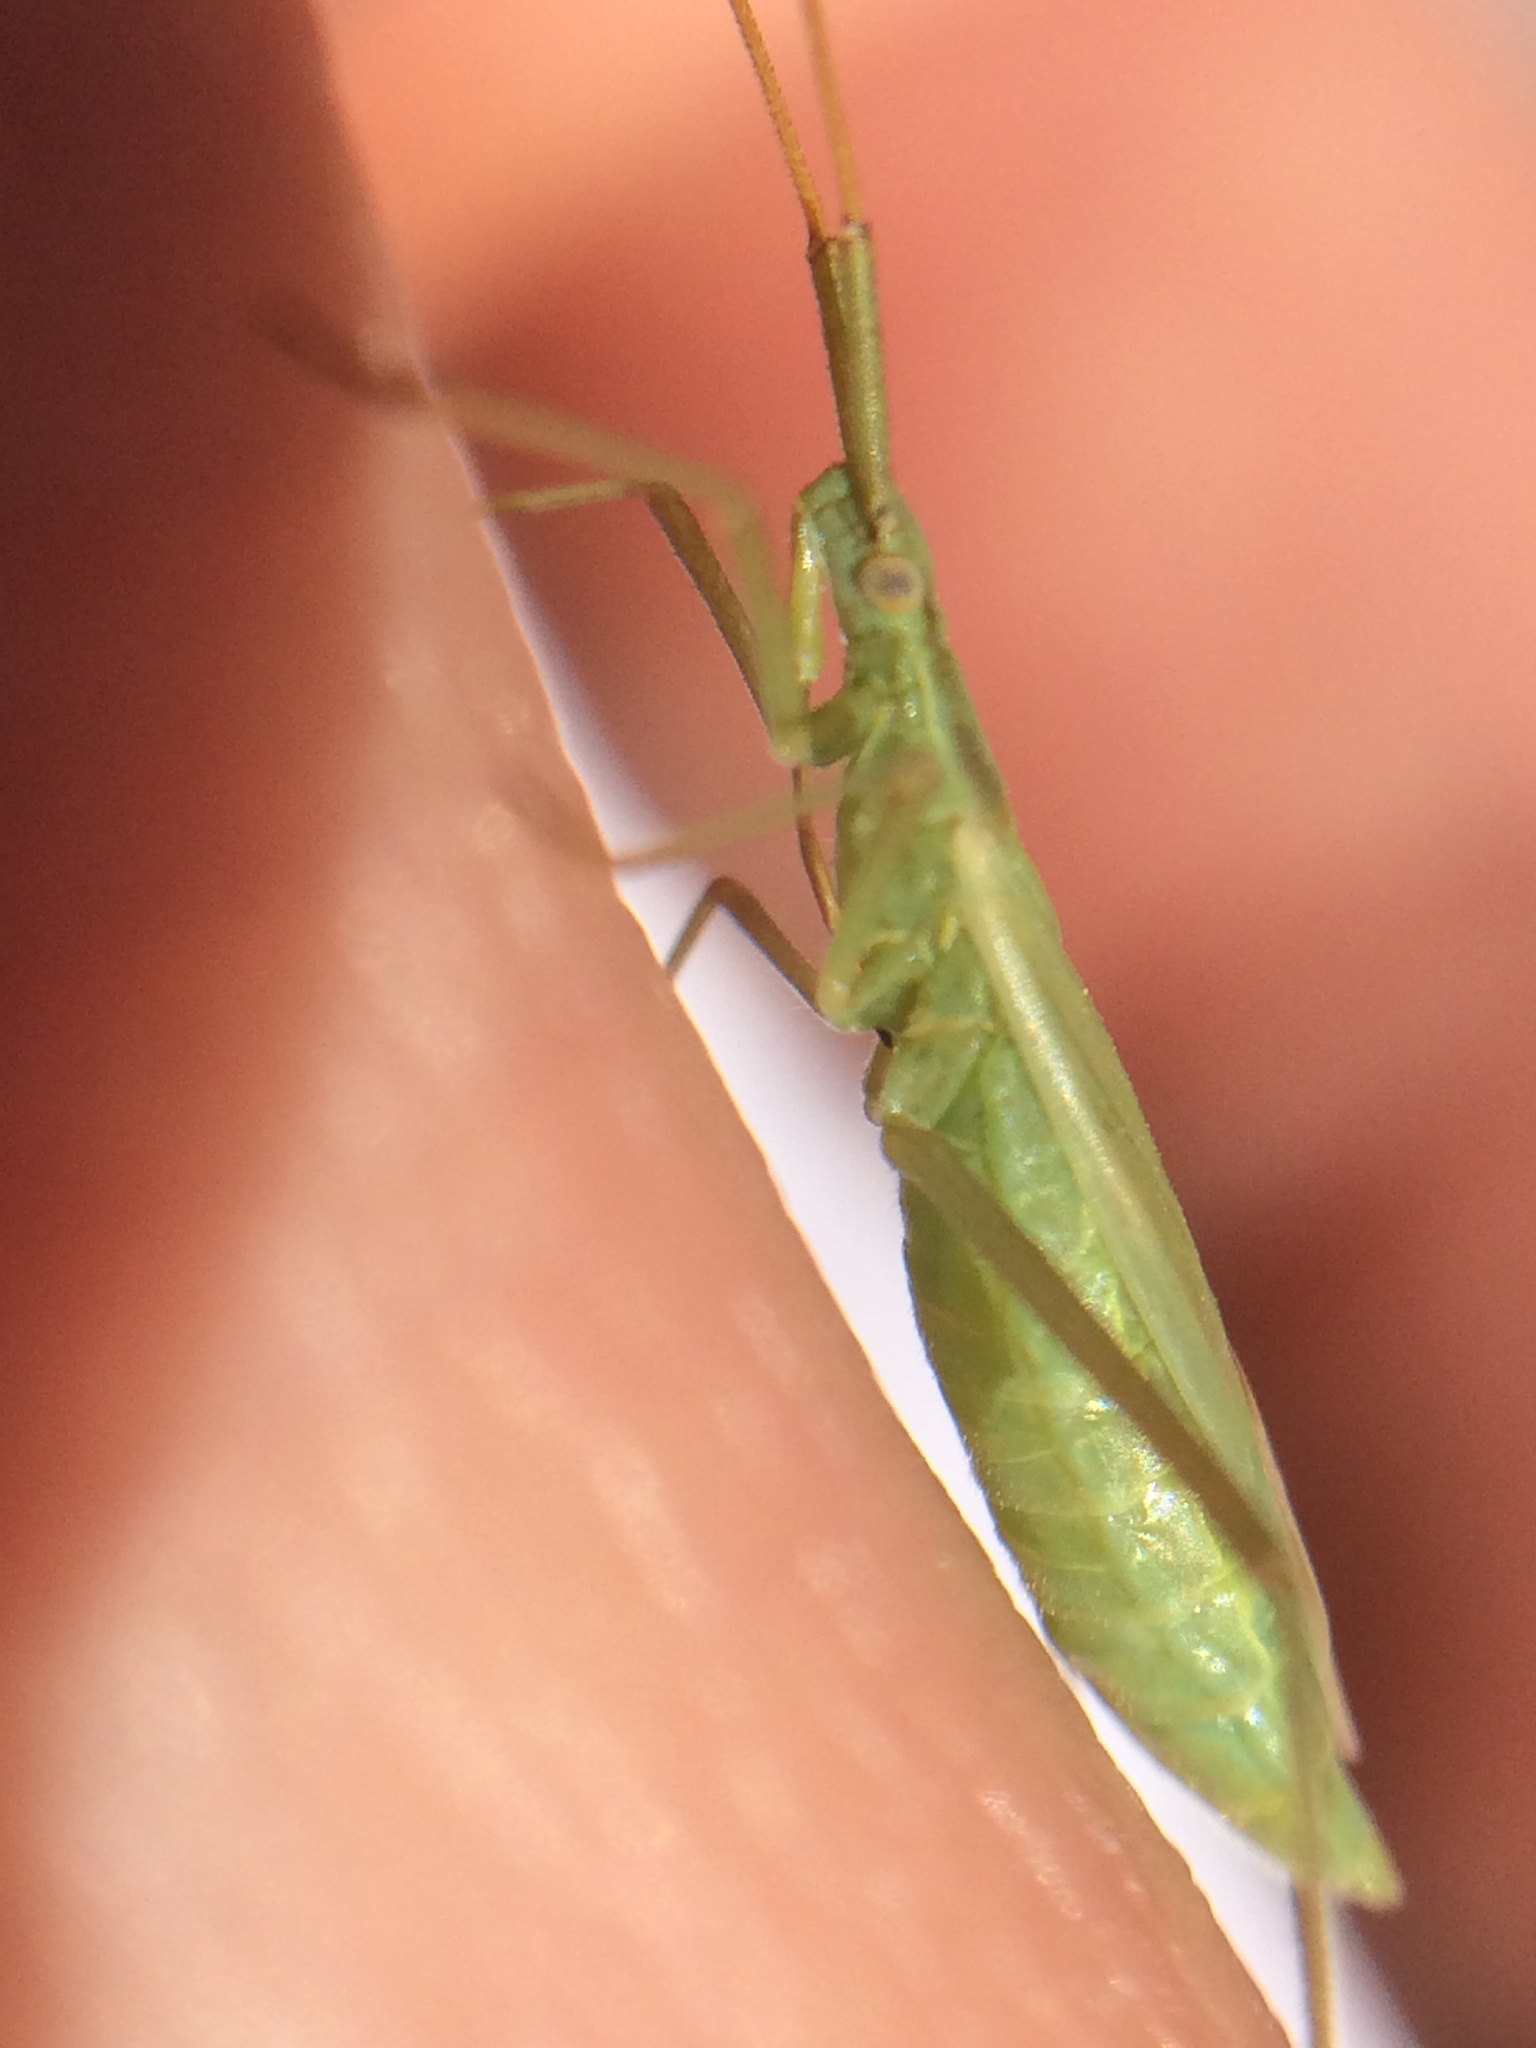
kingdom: Animalia
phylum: Arthropoda
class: Insecta
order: Hemiptera
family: Miridae
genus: Megaloceroea
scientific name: Megaloceroea recticornis
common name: Plant bug
